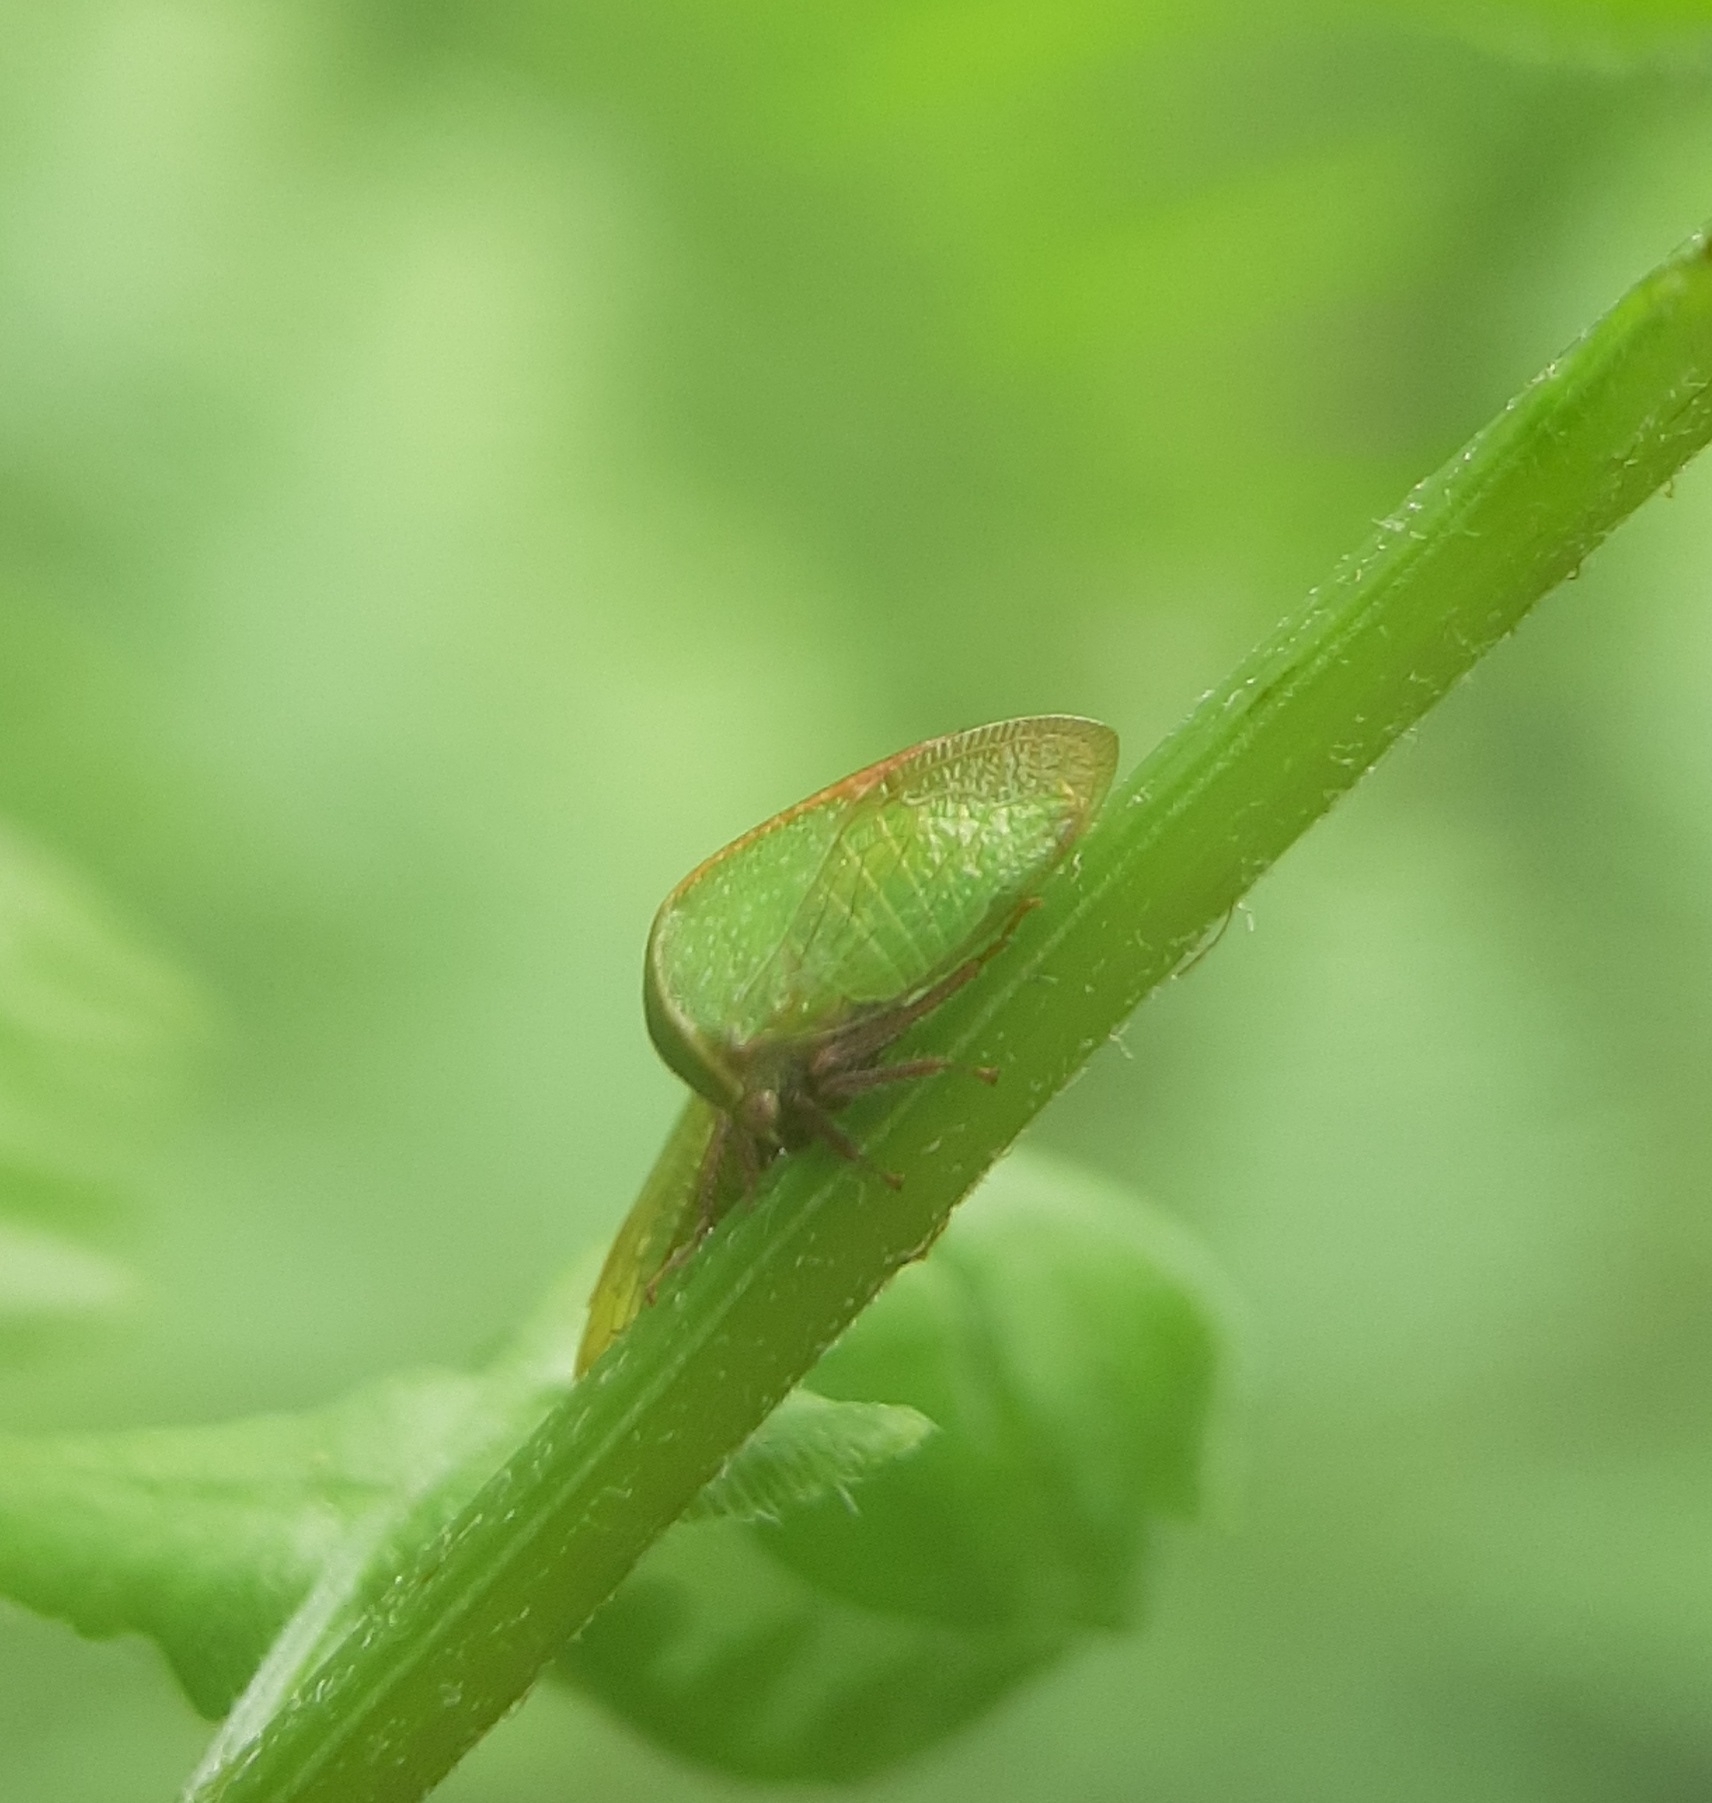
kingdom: Animalia
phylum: Arthropoda
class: Insecta
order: Hemiptera
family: Membracidae
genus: Stictocephala
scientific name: Stictocephala lutea
